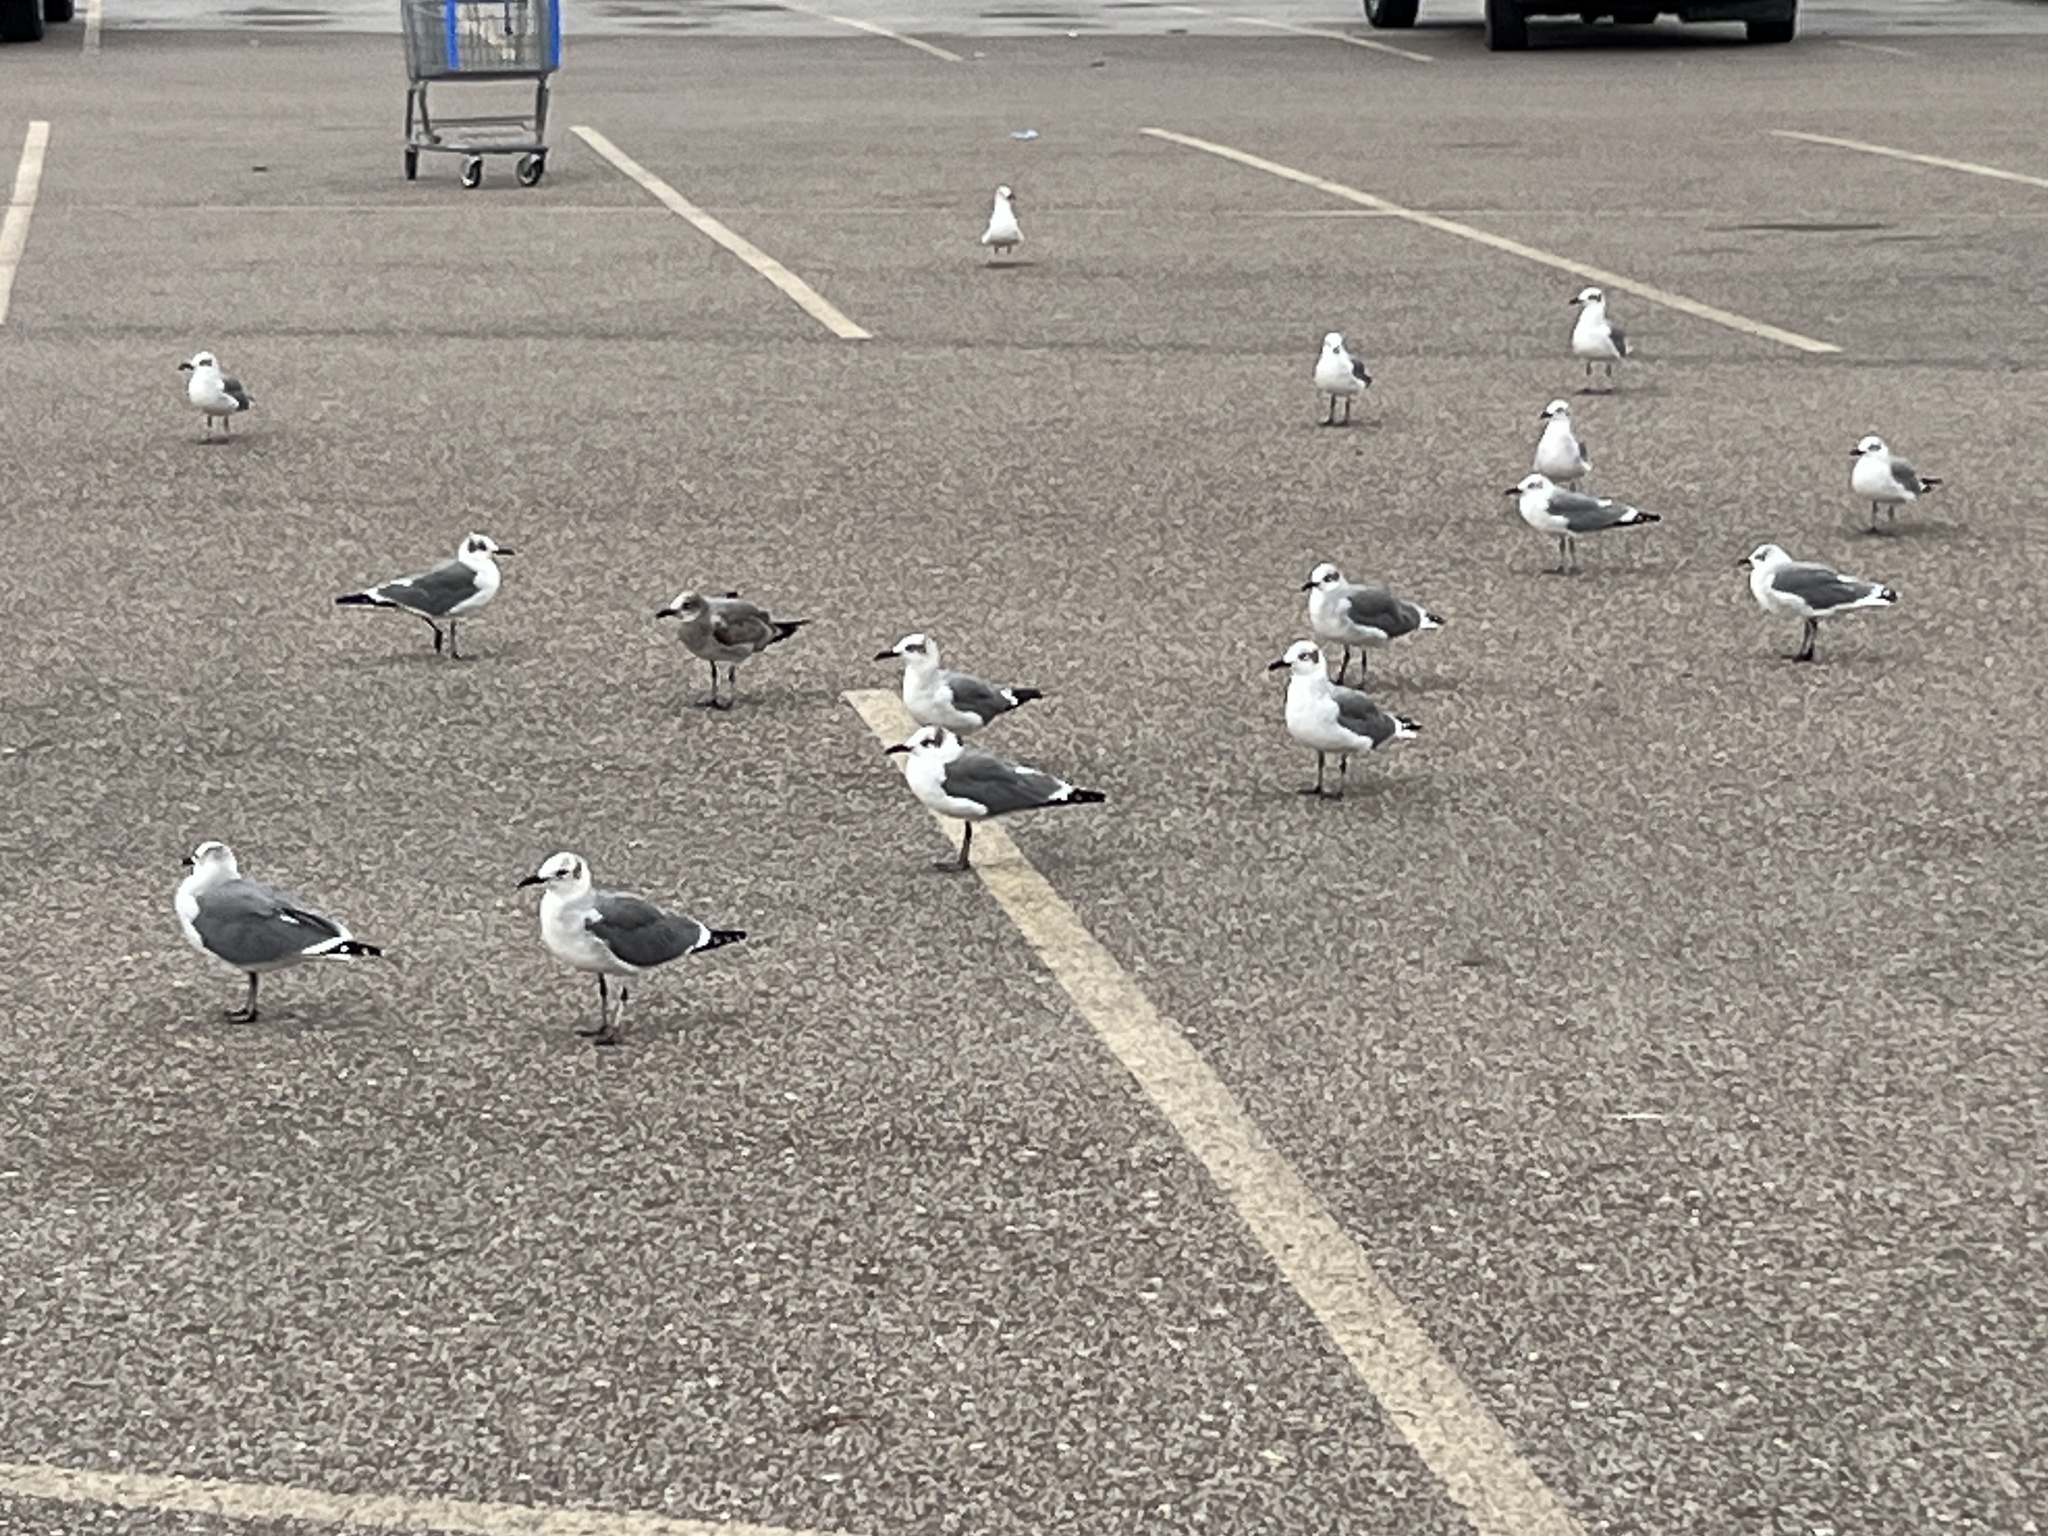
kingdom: Animalia
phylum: Chordata
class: Aves
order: Charadriiformes
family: Laridae
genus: Leucophaeus
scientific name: Leucophaeus atricilla
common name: Laughing gull
